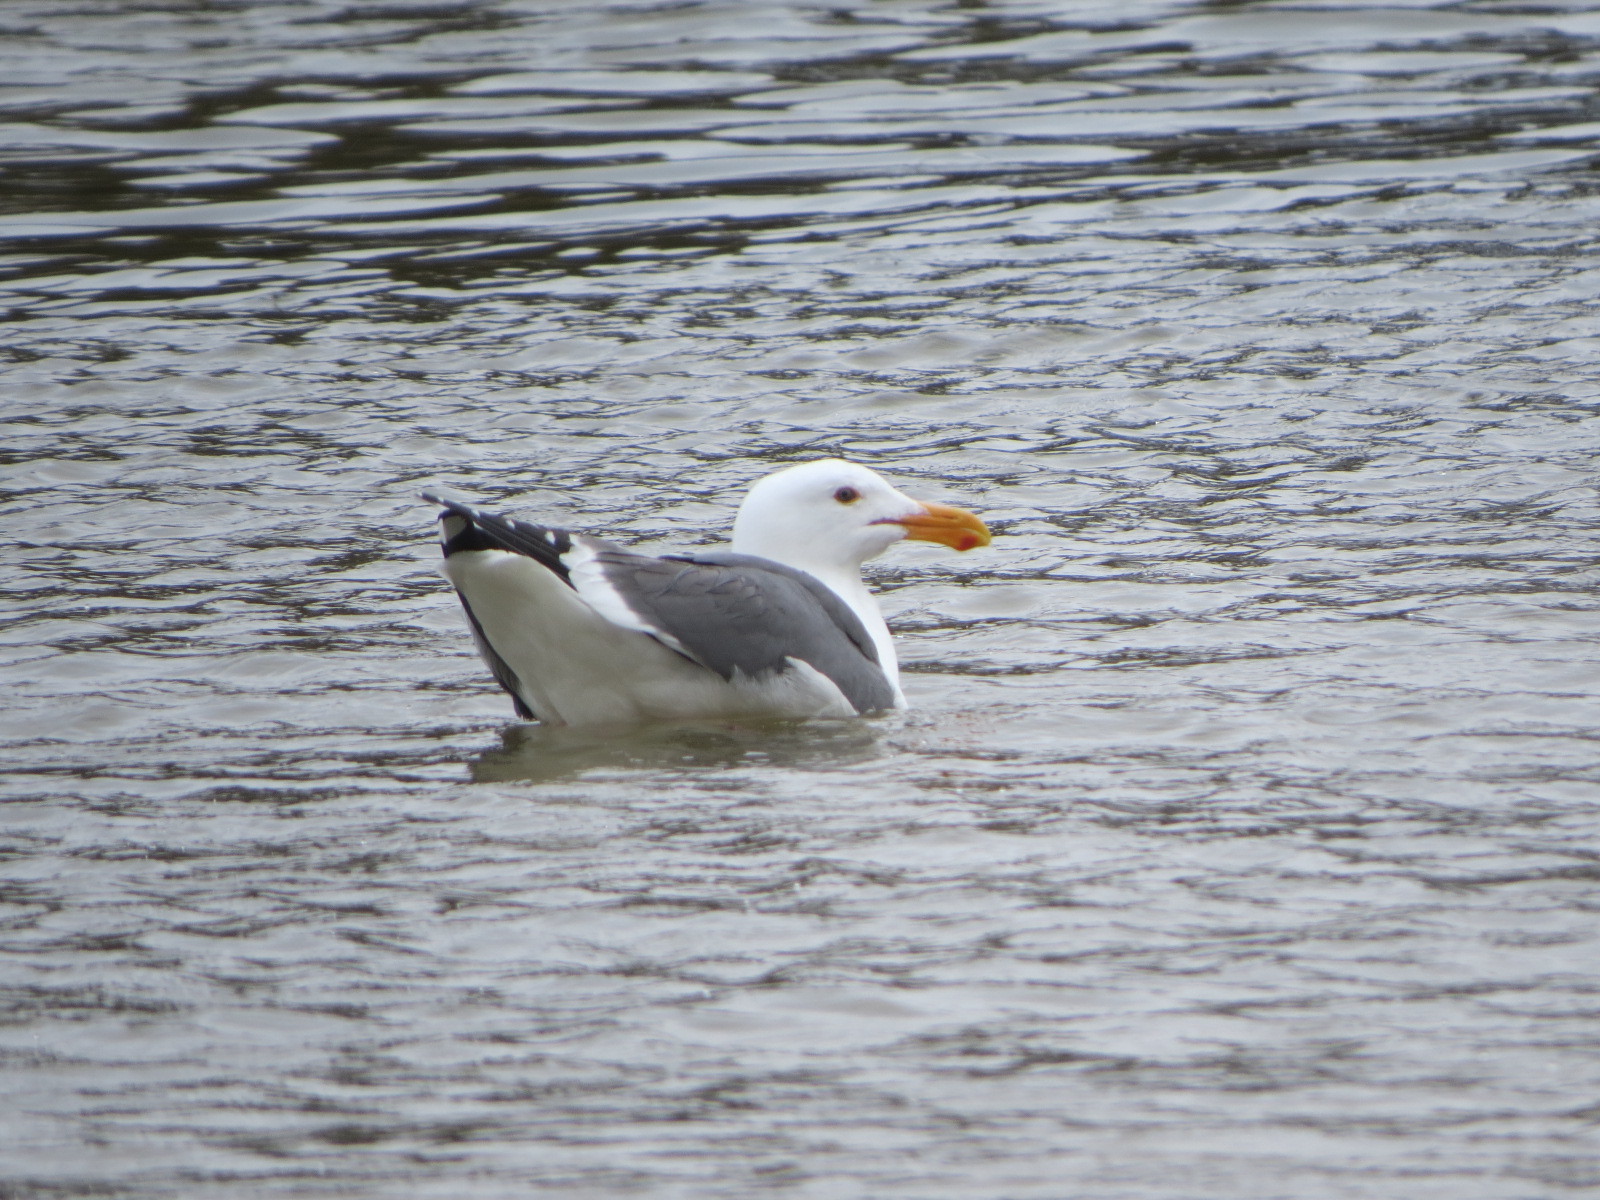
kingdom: Animalia
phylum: Chordata
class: Aves
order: Charadriiformes
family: Laridae
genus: Larus
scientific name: Larus occidentalis
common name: Western gull
